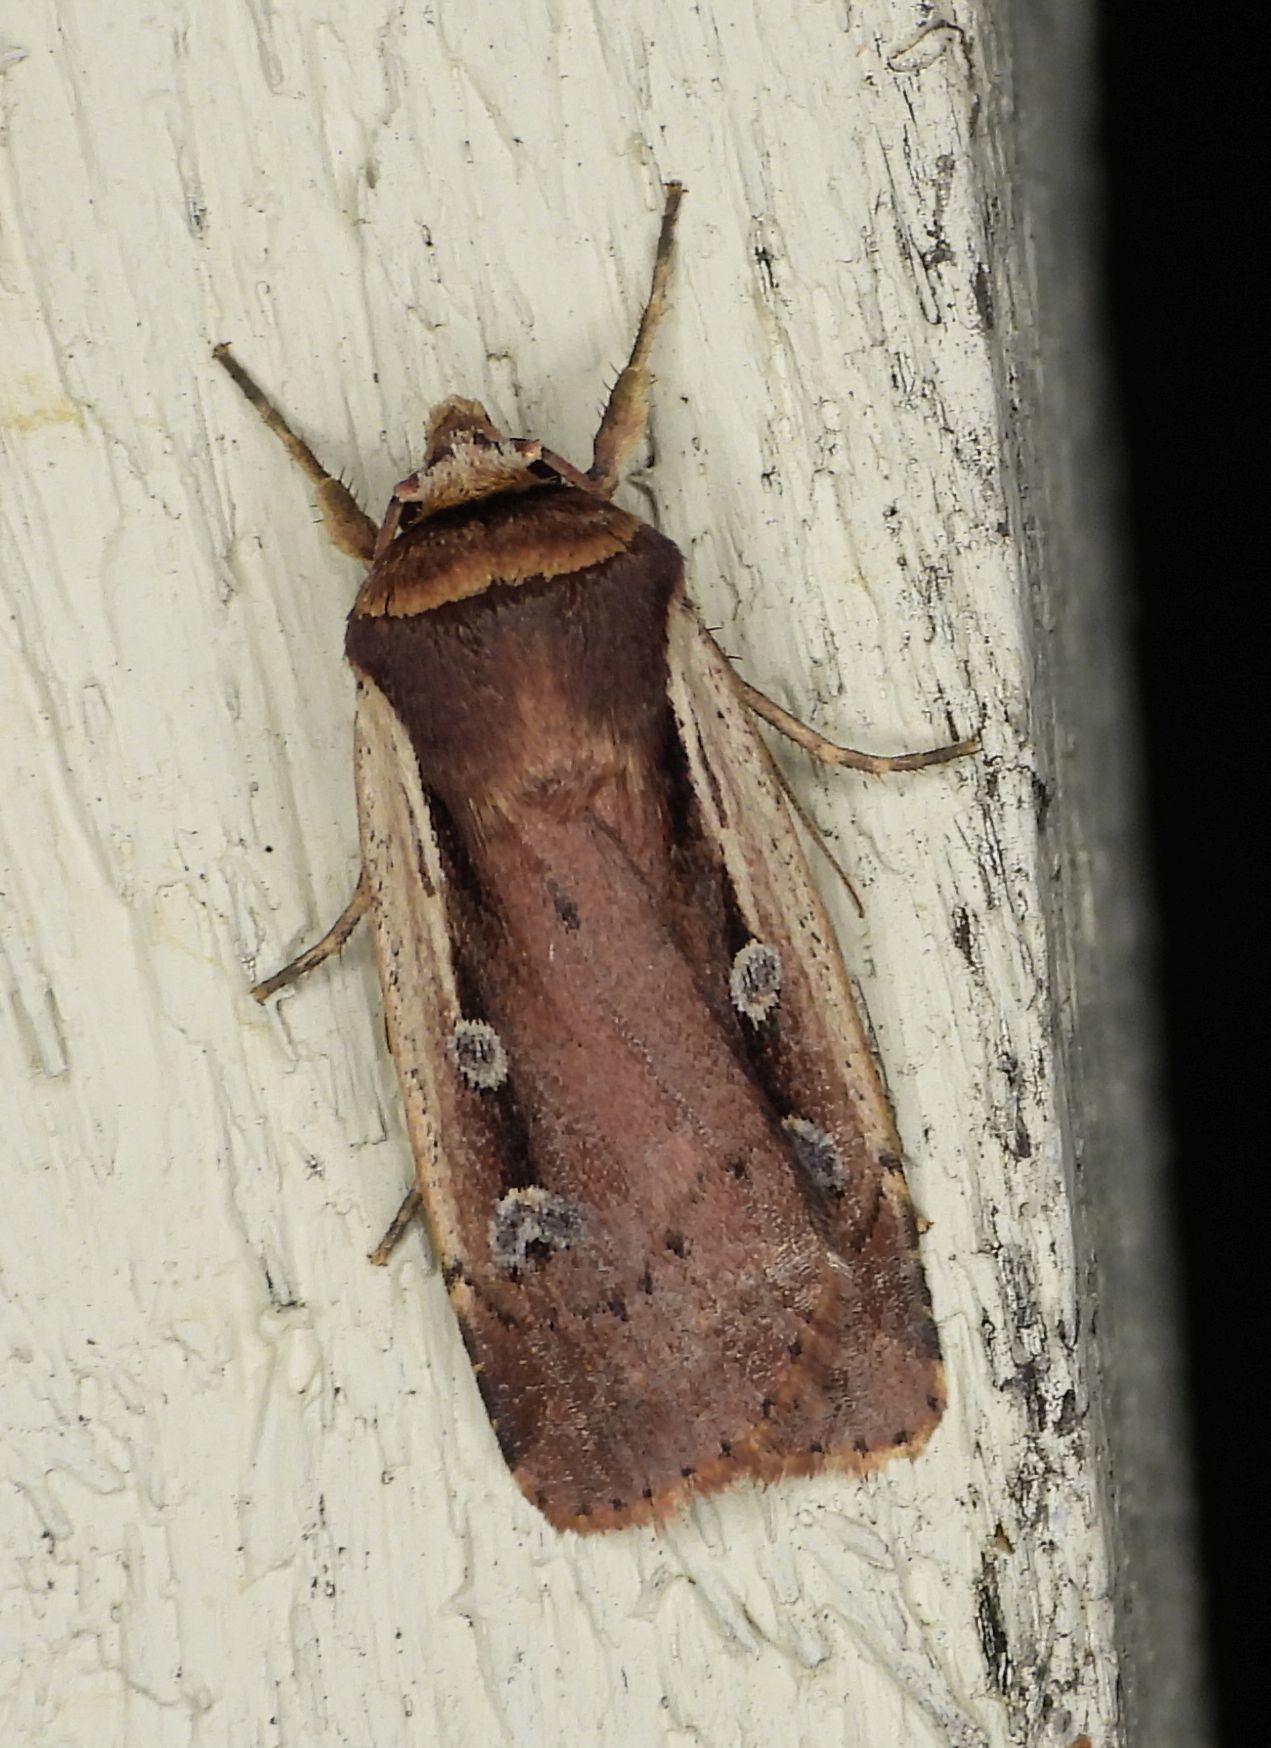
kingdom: Animalia
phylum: Arthropoda
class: Insecta
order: Lepidoptera
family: Noctuidae
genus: Ochropleura
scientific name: Ochropleura implecta
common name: Flame-shouldered dart
